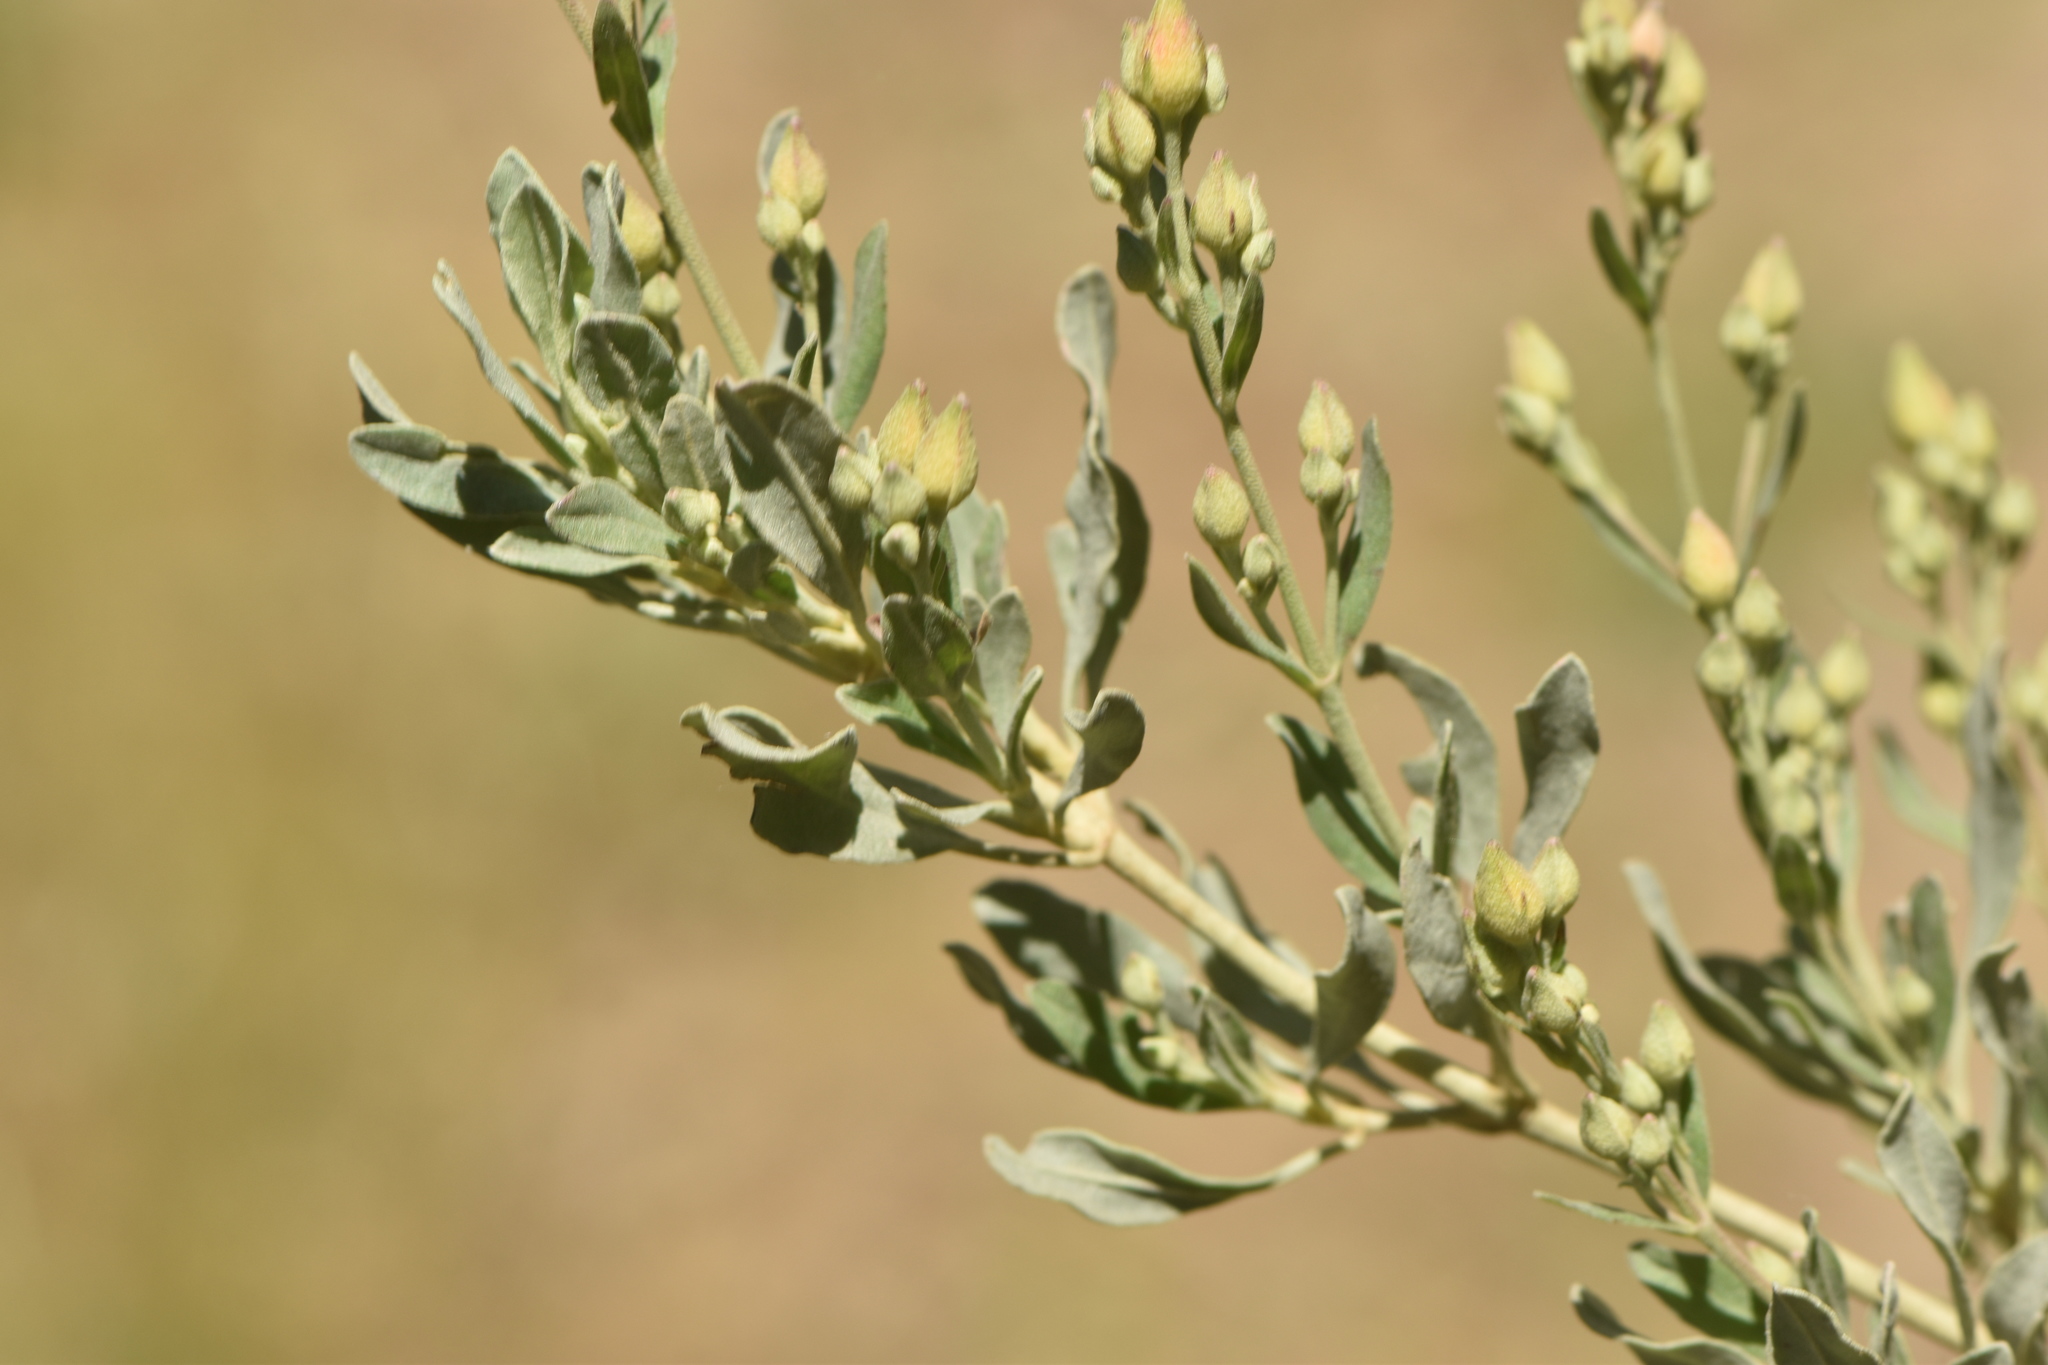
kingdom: Plantae
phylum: Tracheophyta
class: Magnoliopsida
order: Malvales
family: Cistaceae
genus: Halimium
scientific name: Halimium halimifolium
